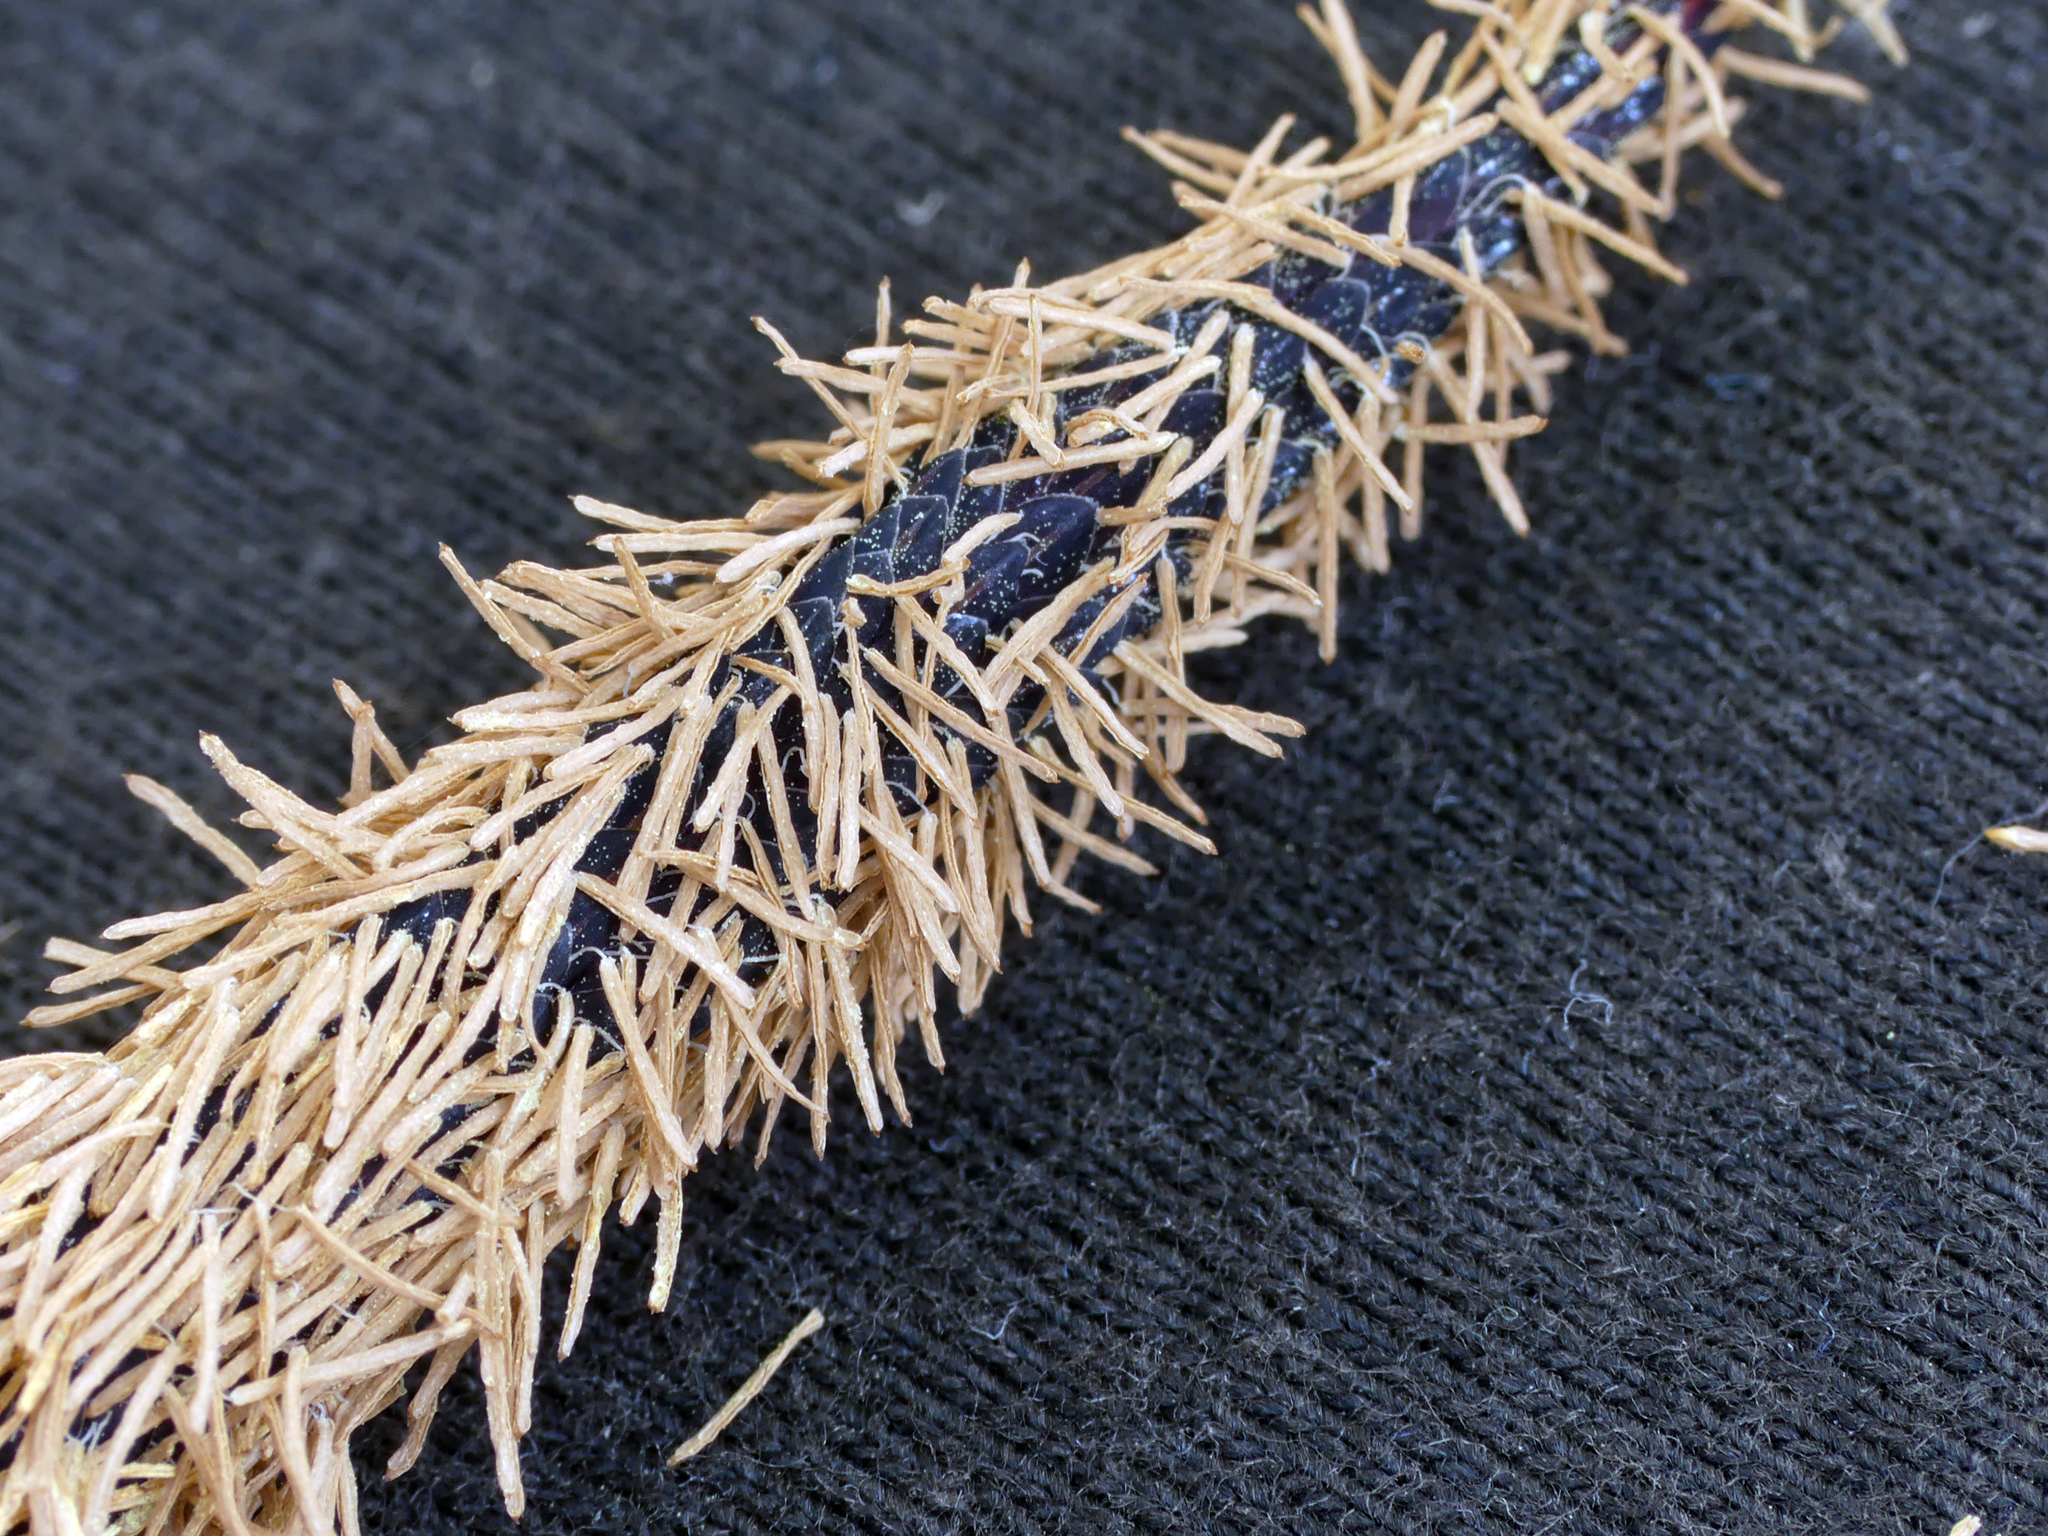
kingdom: Plantae
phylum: Tracheophyta
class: Liliopsida
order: Poales
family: Cyperaceae
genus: Carex
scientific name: Carex acuta
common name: Slender tufted-sedge
